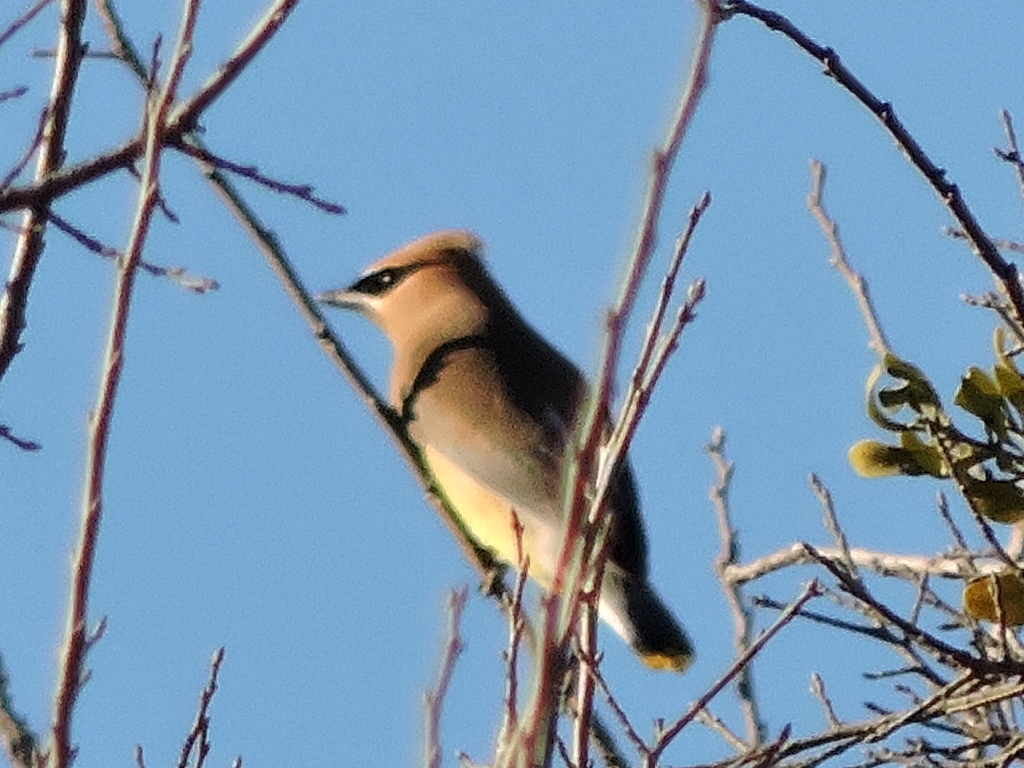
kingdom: Animalia
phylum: Chordata
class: Aves
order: Passeriformes
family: Bombycillidae
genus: Bombycilla
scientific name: Bombycilla cedrorum
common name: Cedar waxwing
